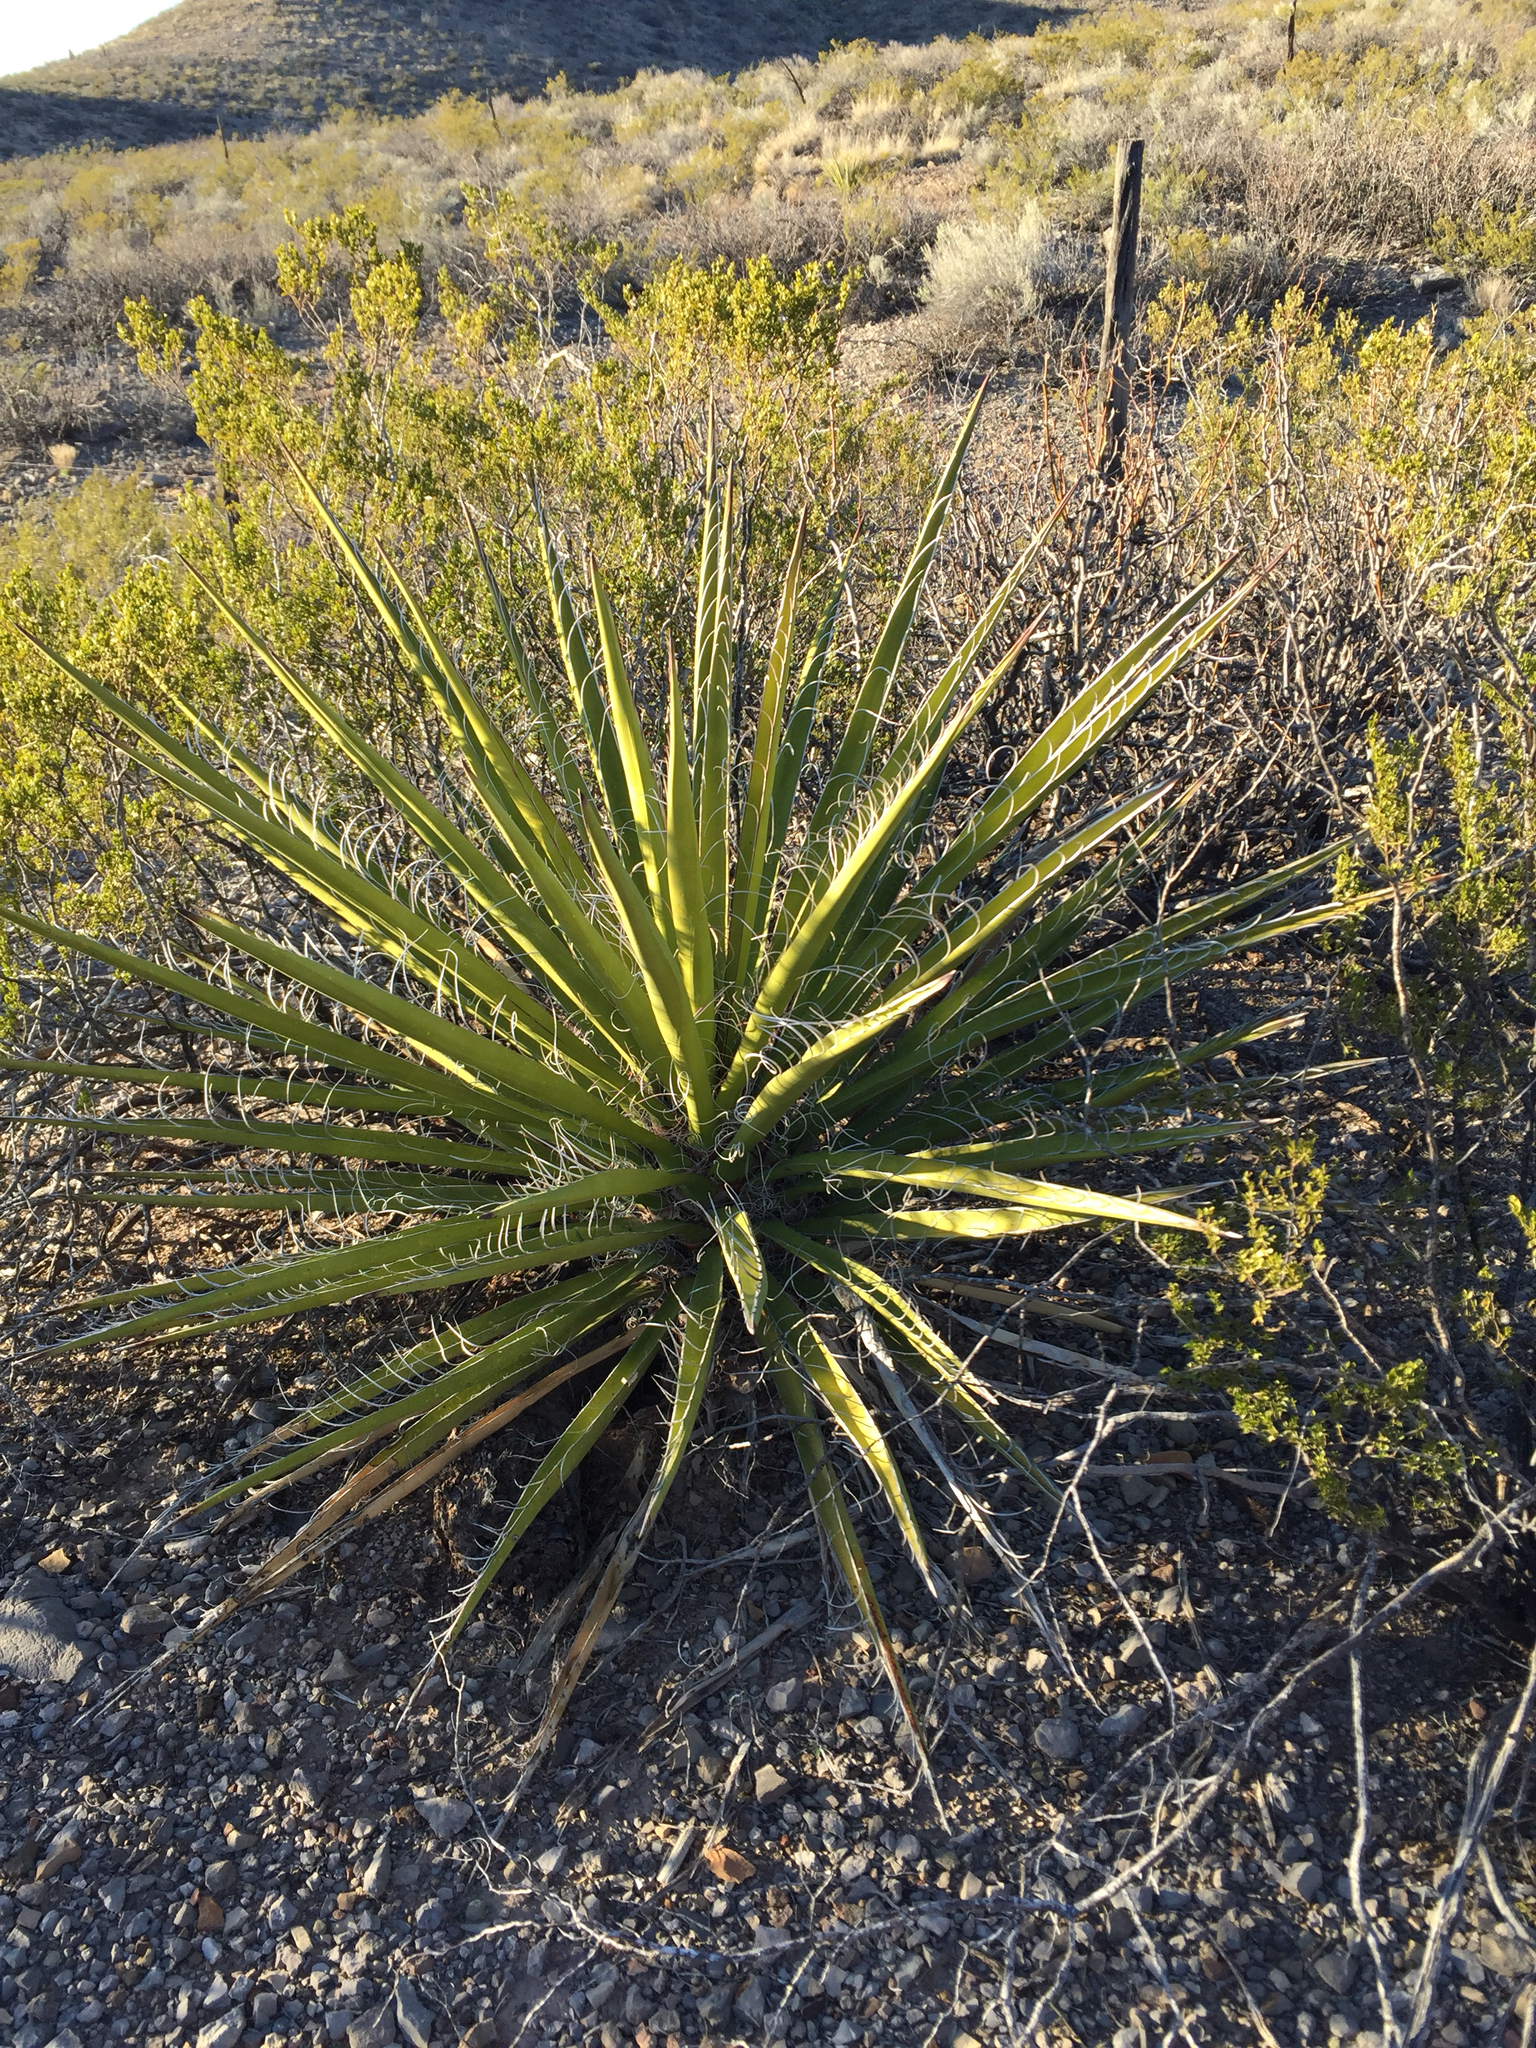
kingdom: Plantae
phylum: Tracheophyta
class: Liliopsida
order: Asparagales
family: Asparagaceae
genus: Yucca
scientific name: Yucca treculiana
